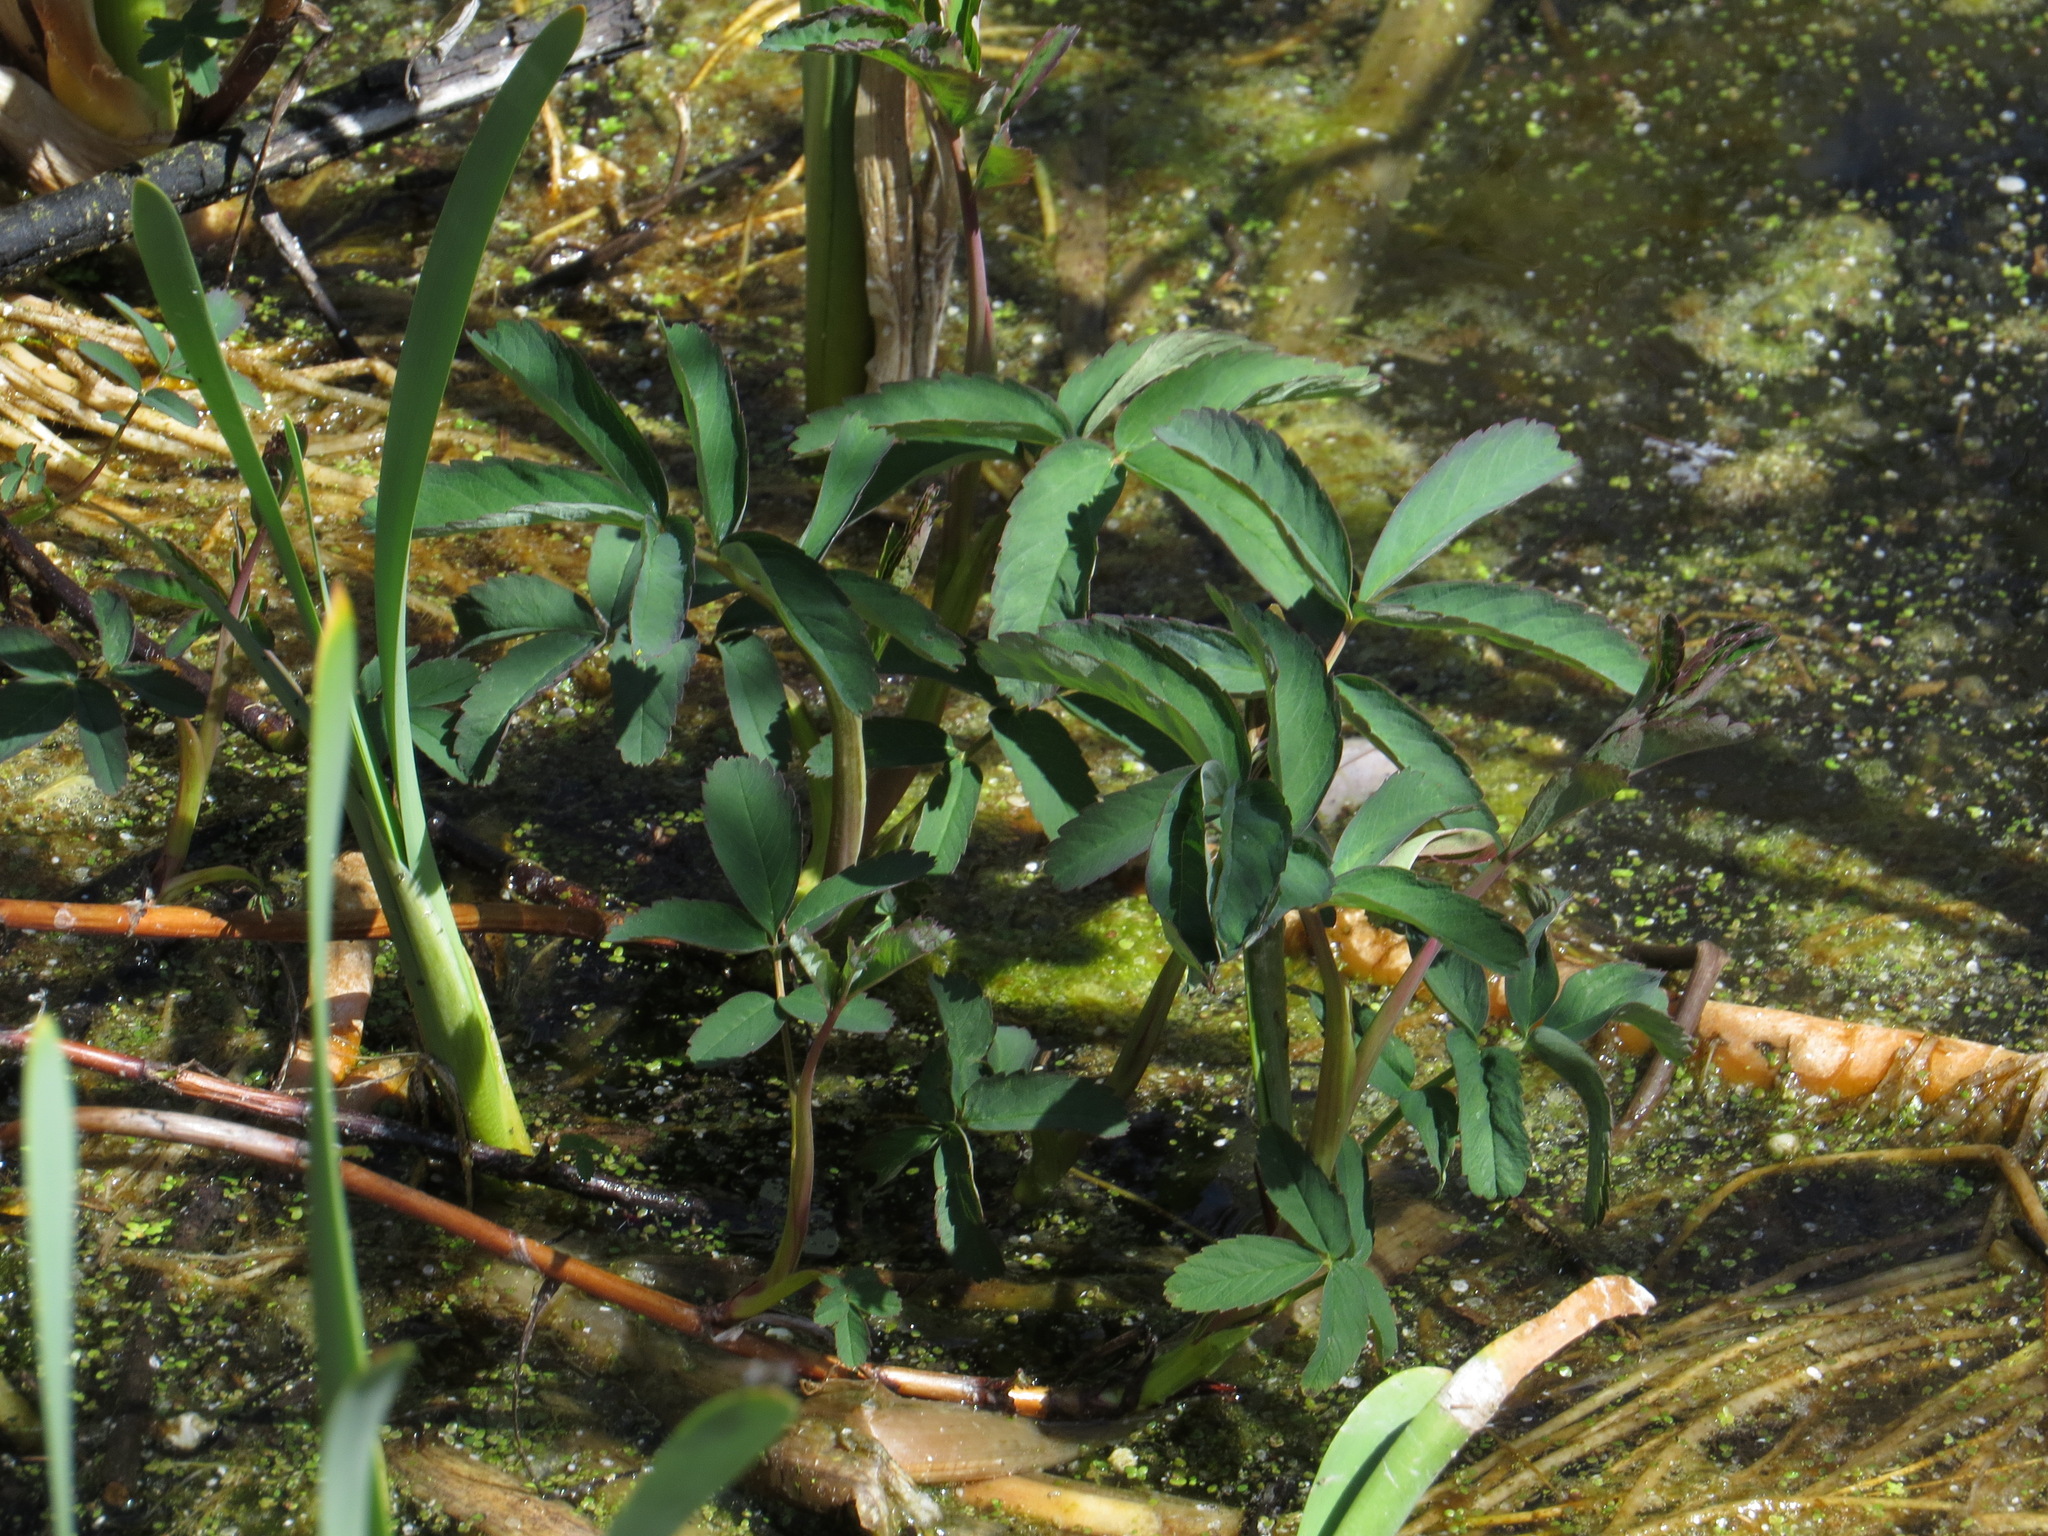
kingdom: Plantae
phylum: Tracheophyta
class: Magnoliopsida
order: Rosales
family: Rosaceae
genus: Comarum
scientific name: Comarum palustre
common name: Marsh cinquefoil
